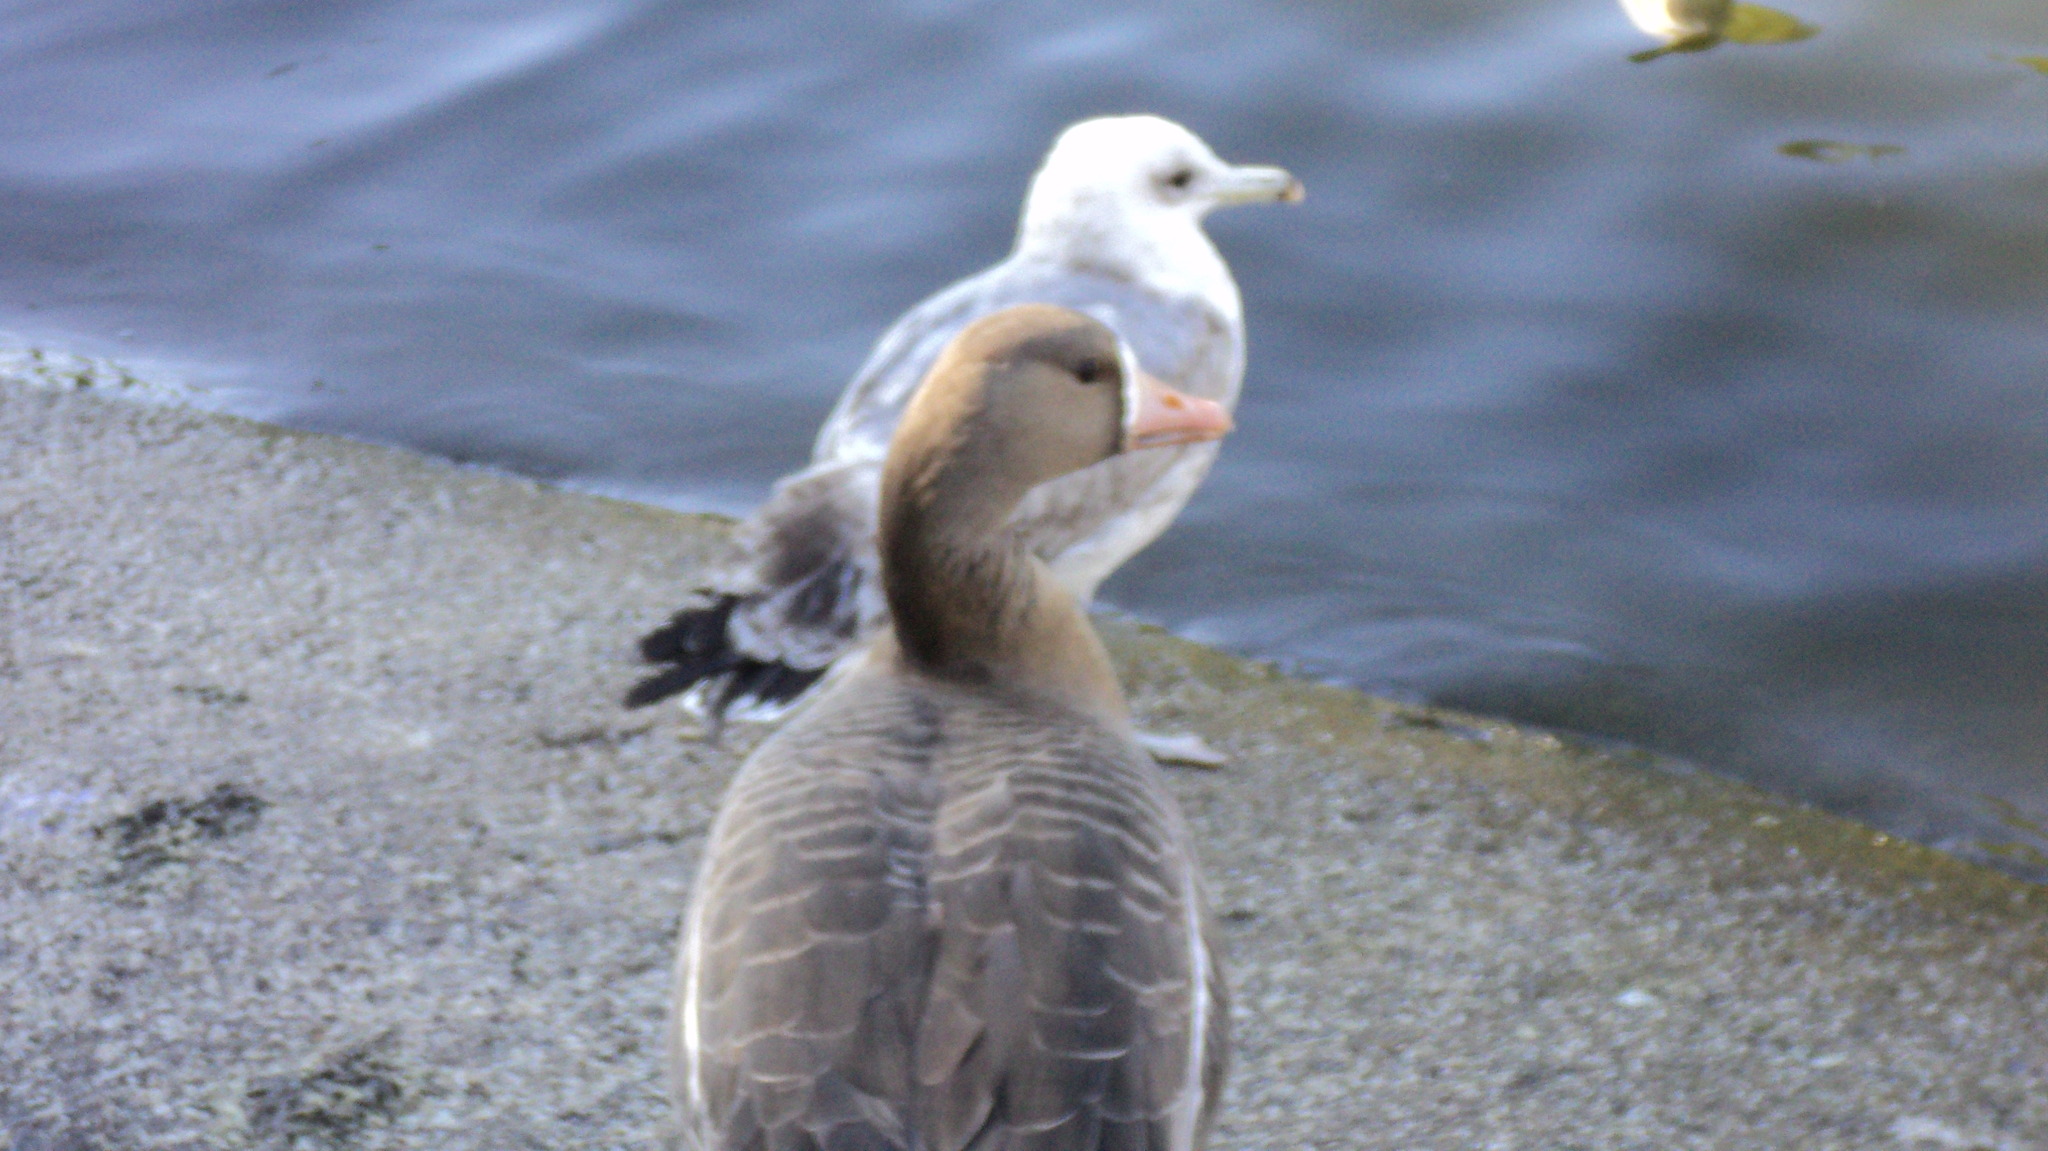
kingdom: Animalia
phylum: Chordata
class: Aves
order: Anseriformes
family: Anatidae
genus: Anser
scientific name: Anser albifrons
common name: Greater white-fronted goose
